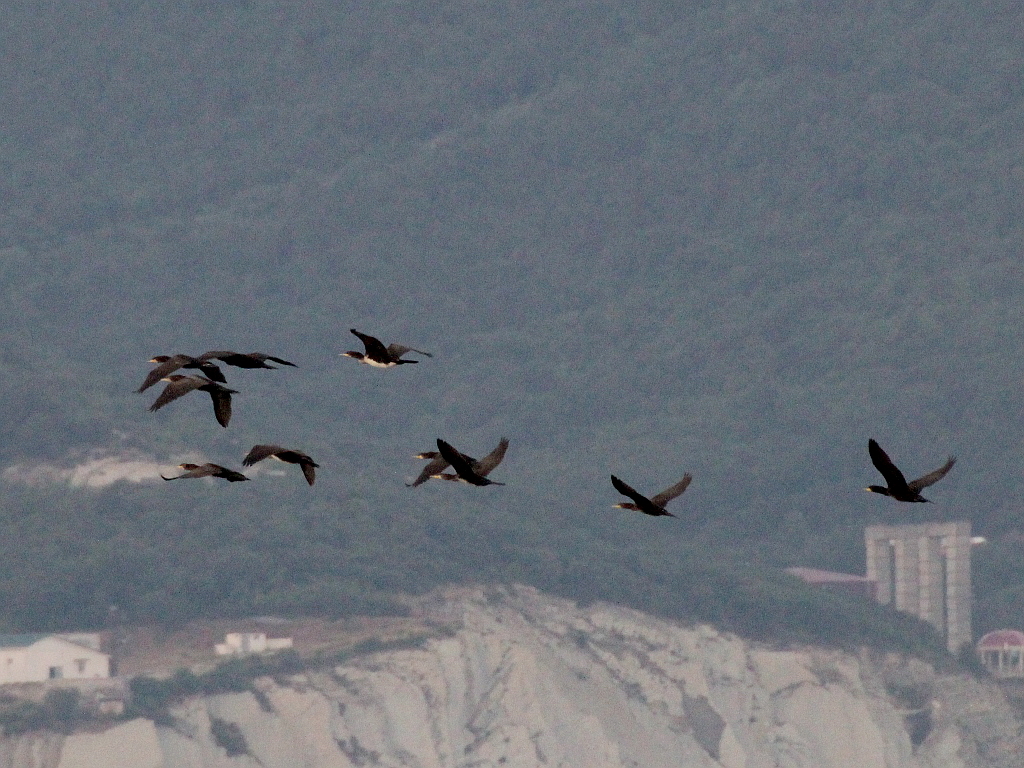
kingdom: Animalia
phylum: Chordata
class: Aves
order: Suliformes
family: Phalacrocoracidae
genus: Phalacrocorax
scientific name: Phalacrocorax carbo
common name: Great cormorant
